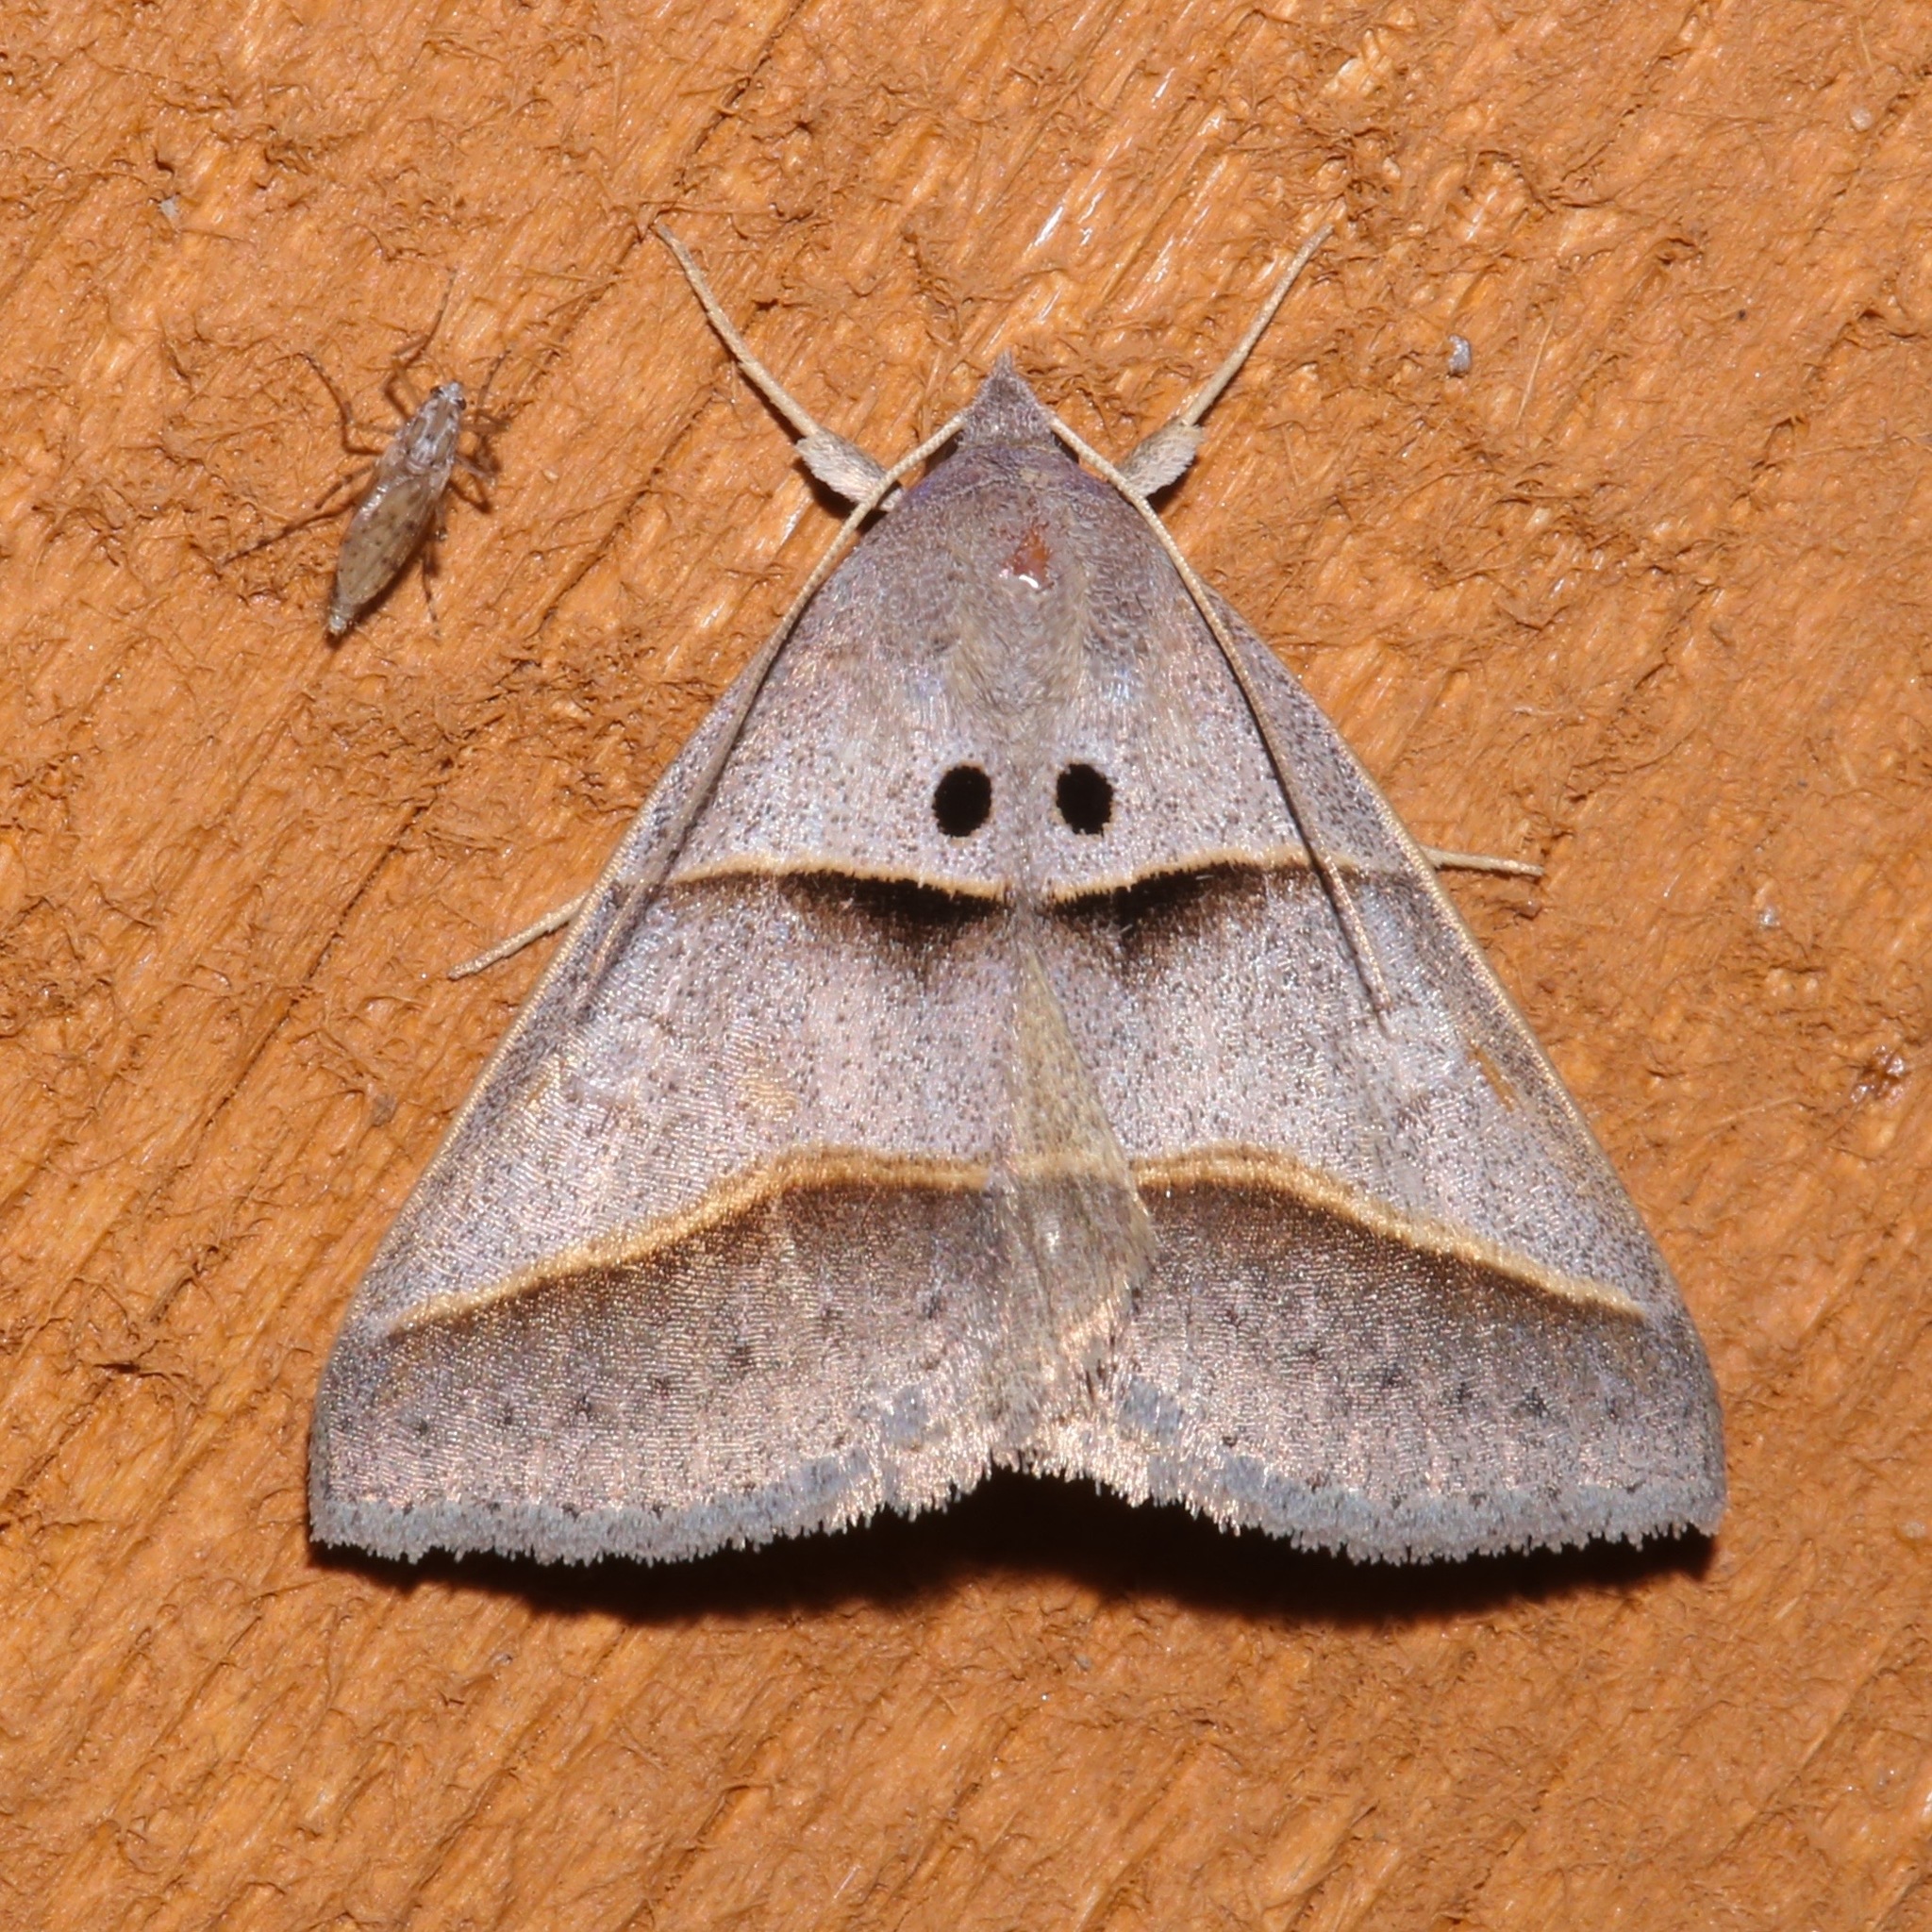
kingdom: Animalia
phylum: Arthropoda
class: Insecta
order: Lepidoptera
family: Erebidae
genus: Ptichodis
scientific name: Ptichodis herbarum
